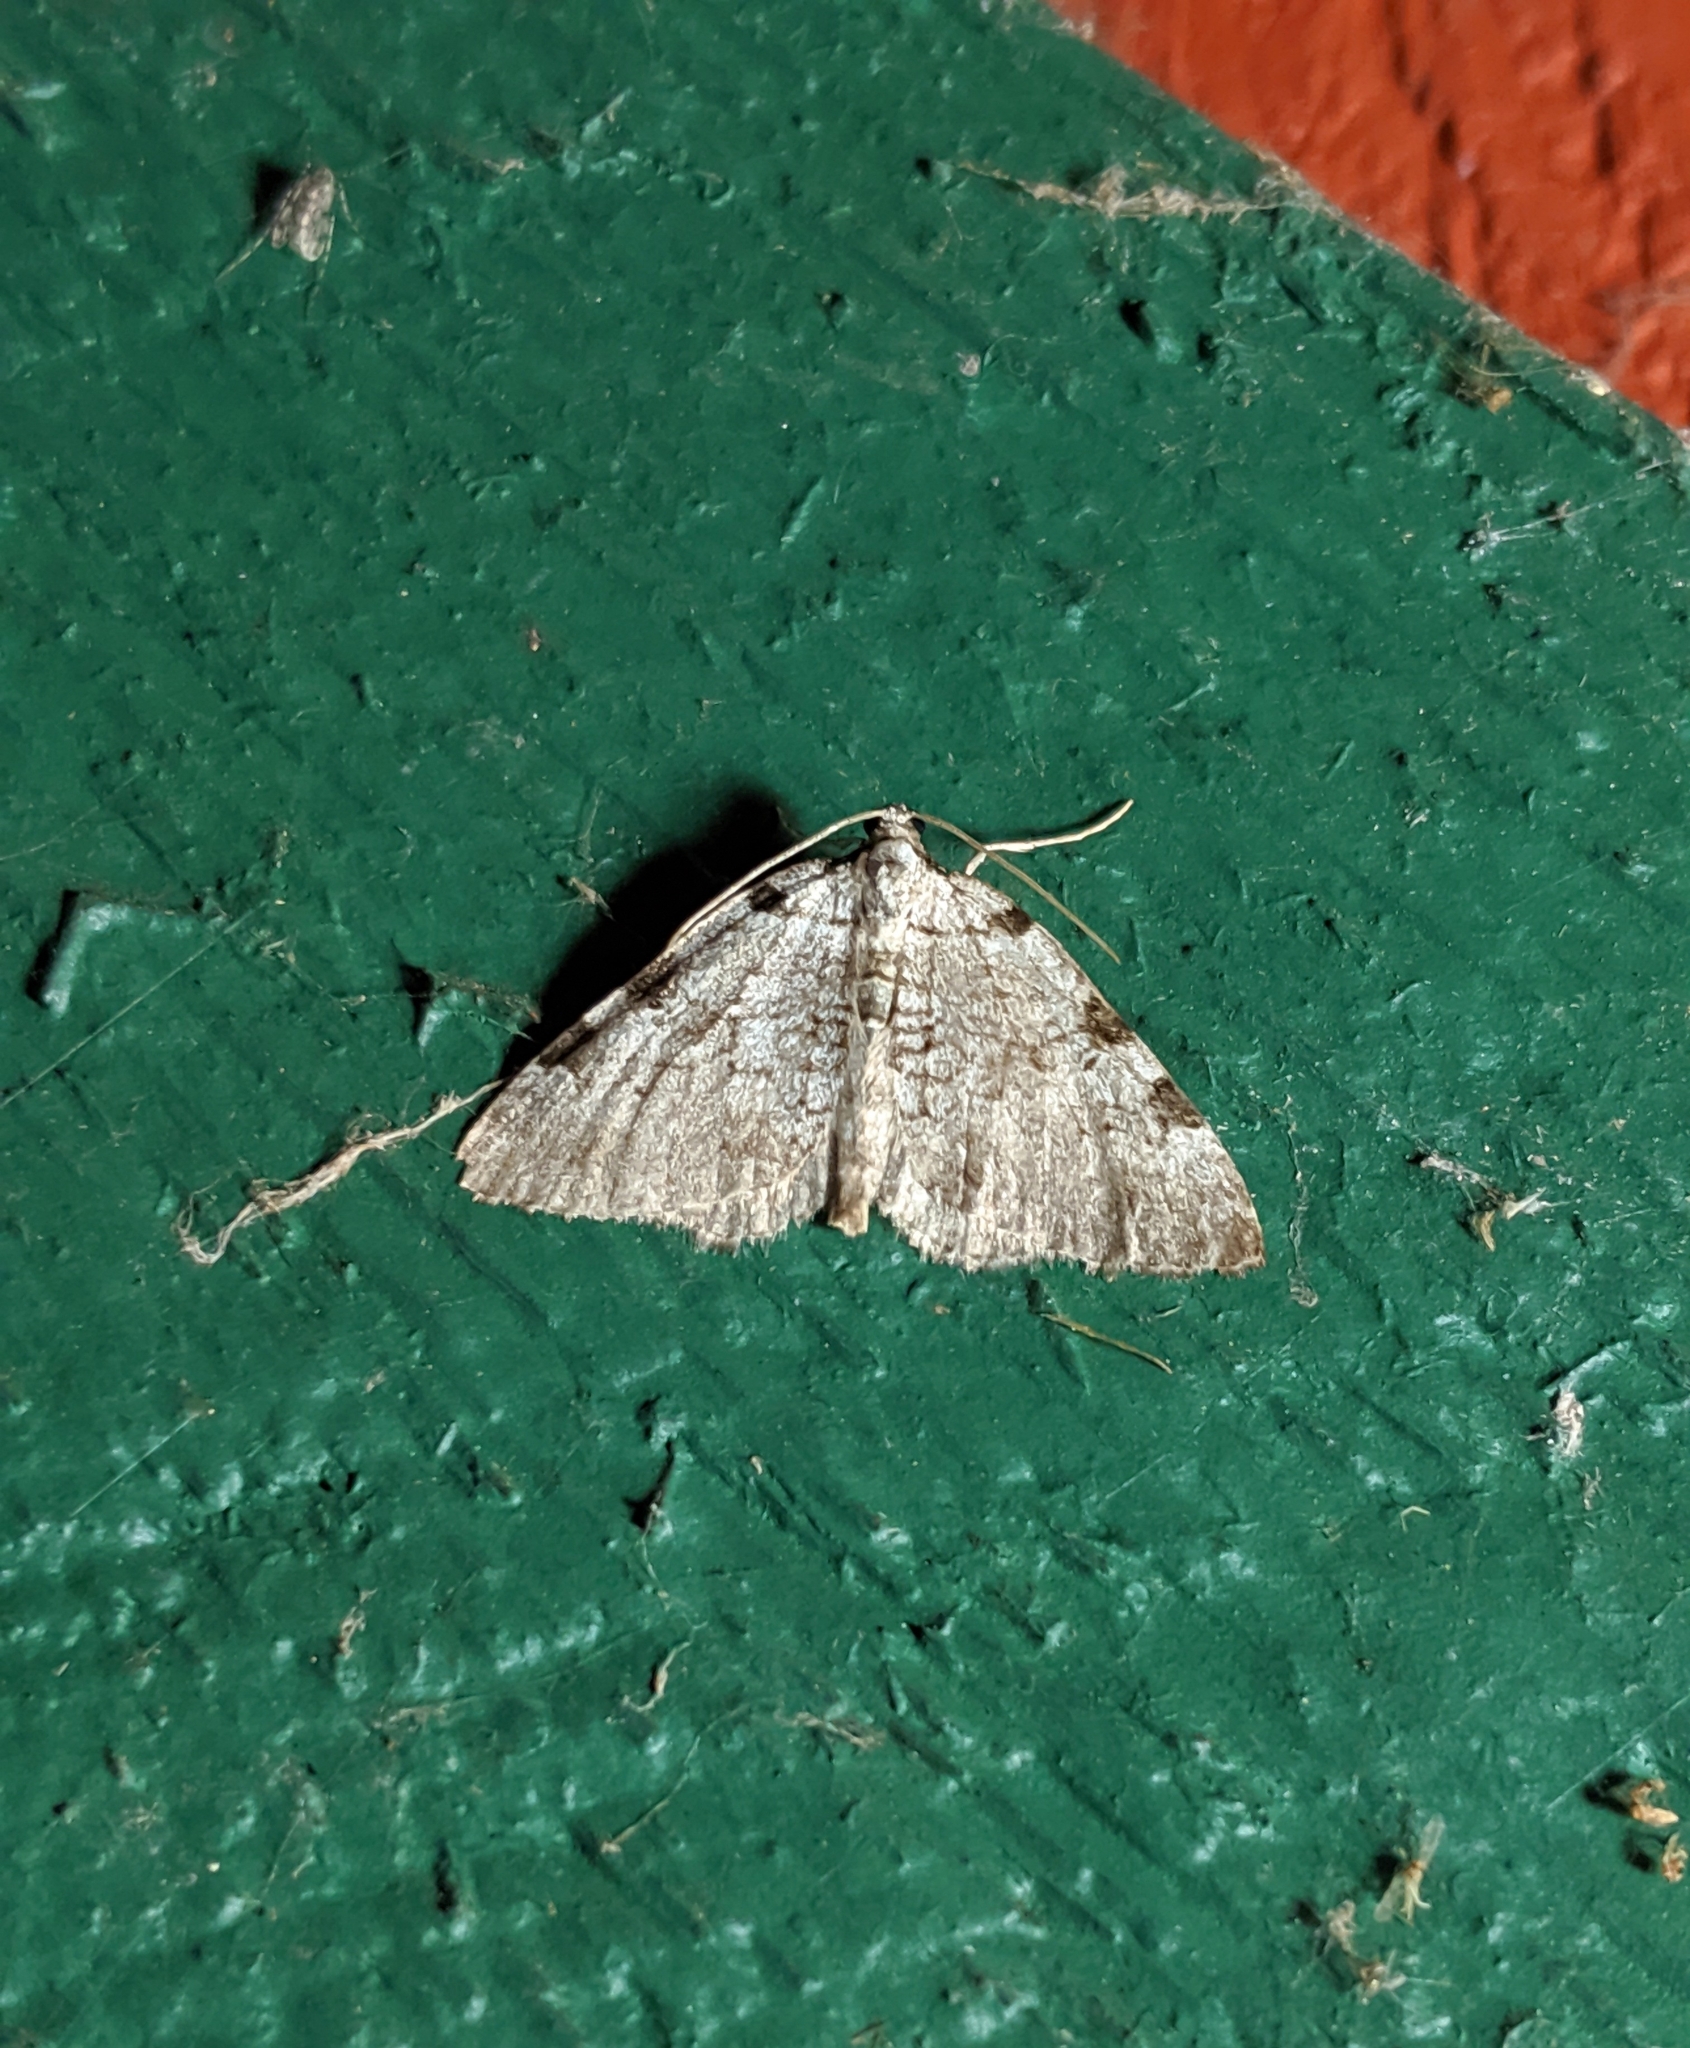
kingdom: Animalia
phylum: Arthropoda
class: Insecta
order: Lepidoptera
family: Geometridae
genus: Perizoma
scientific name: Perizoma costiguttata
